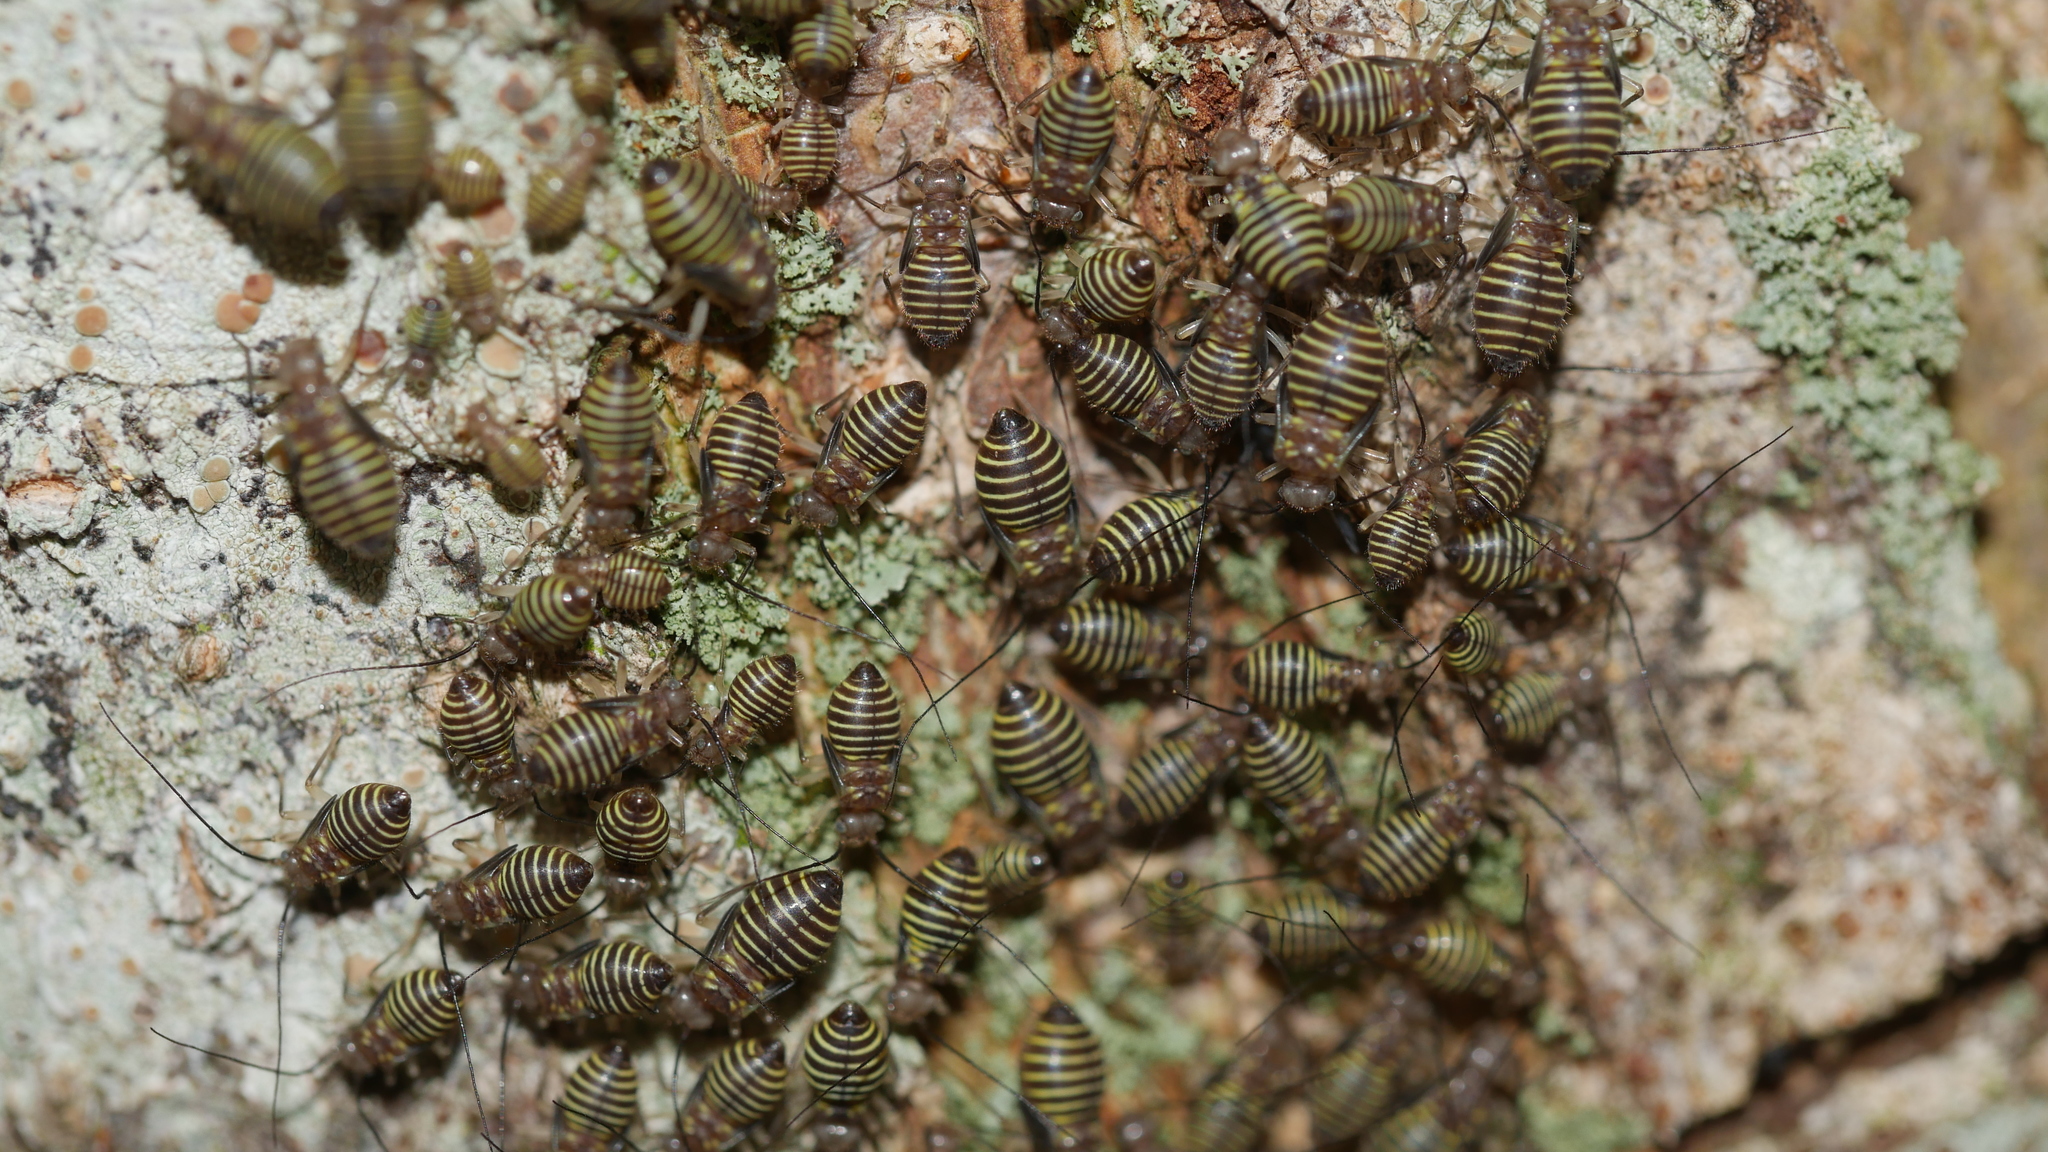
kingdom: Animalia
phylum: Arthropoda
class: Insecta
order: Psocodea
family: Psocidae
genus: Cerastipsocus
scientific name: Cerastipsocus venosus
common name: Tree cattle
